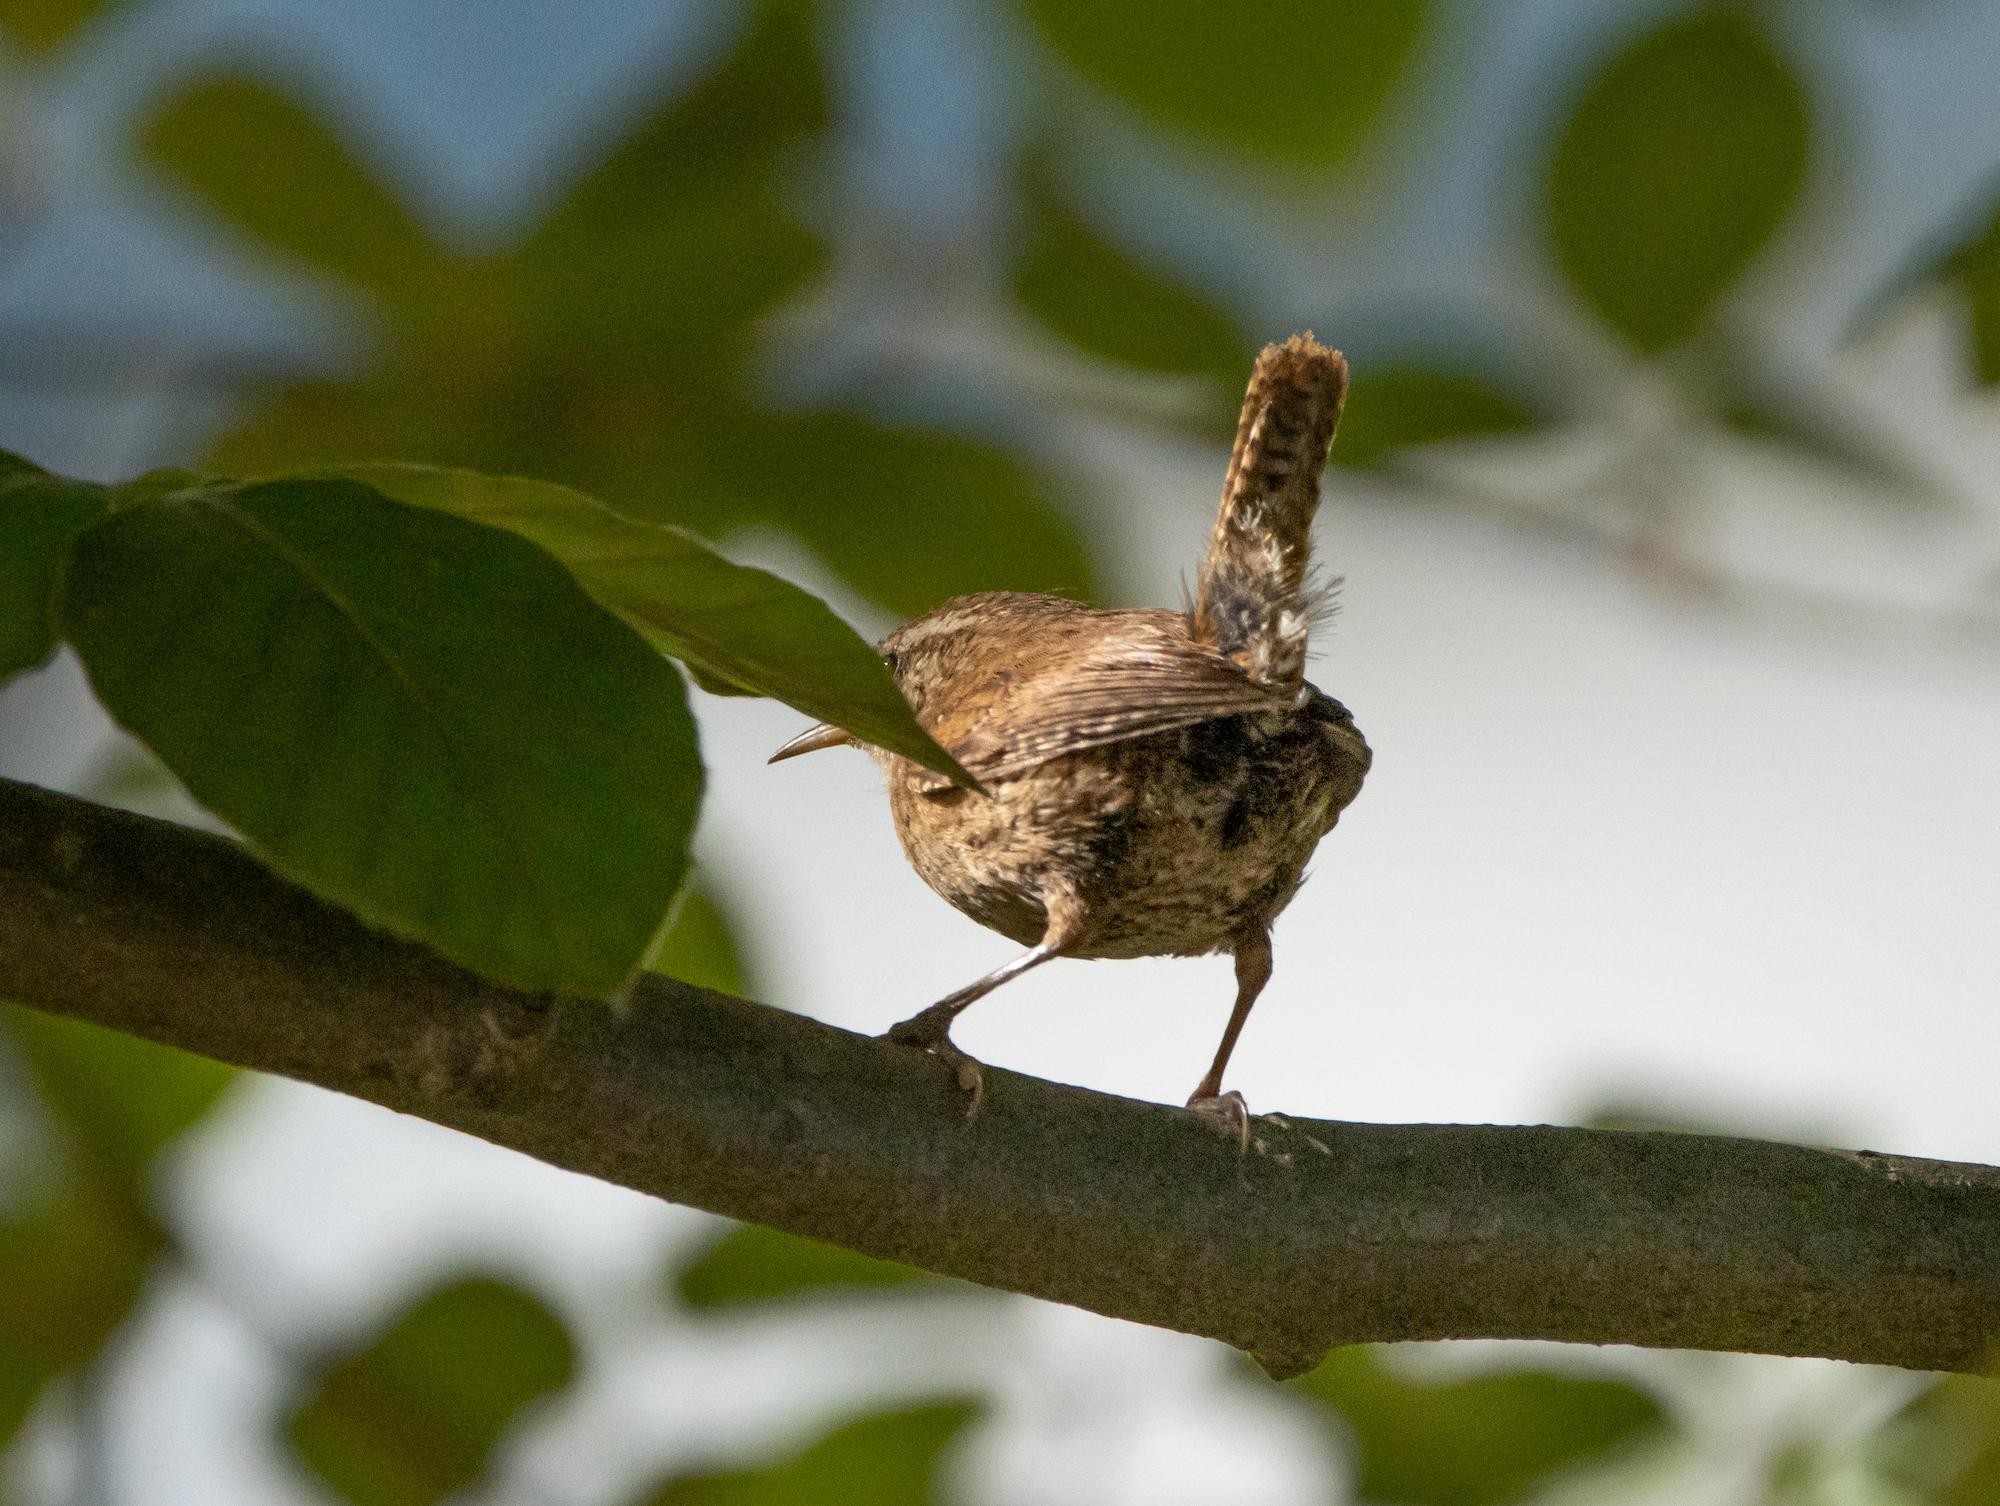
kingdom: Animalia
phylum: Chordata
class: Aves
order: Passeriformes
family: Troglodytidae
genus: Troglodytes
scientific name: Troglodytes troglodytes
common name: Eurasian wren
